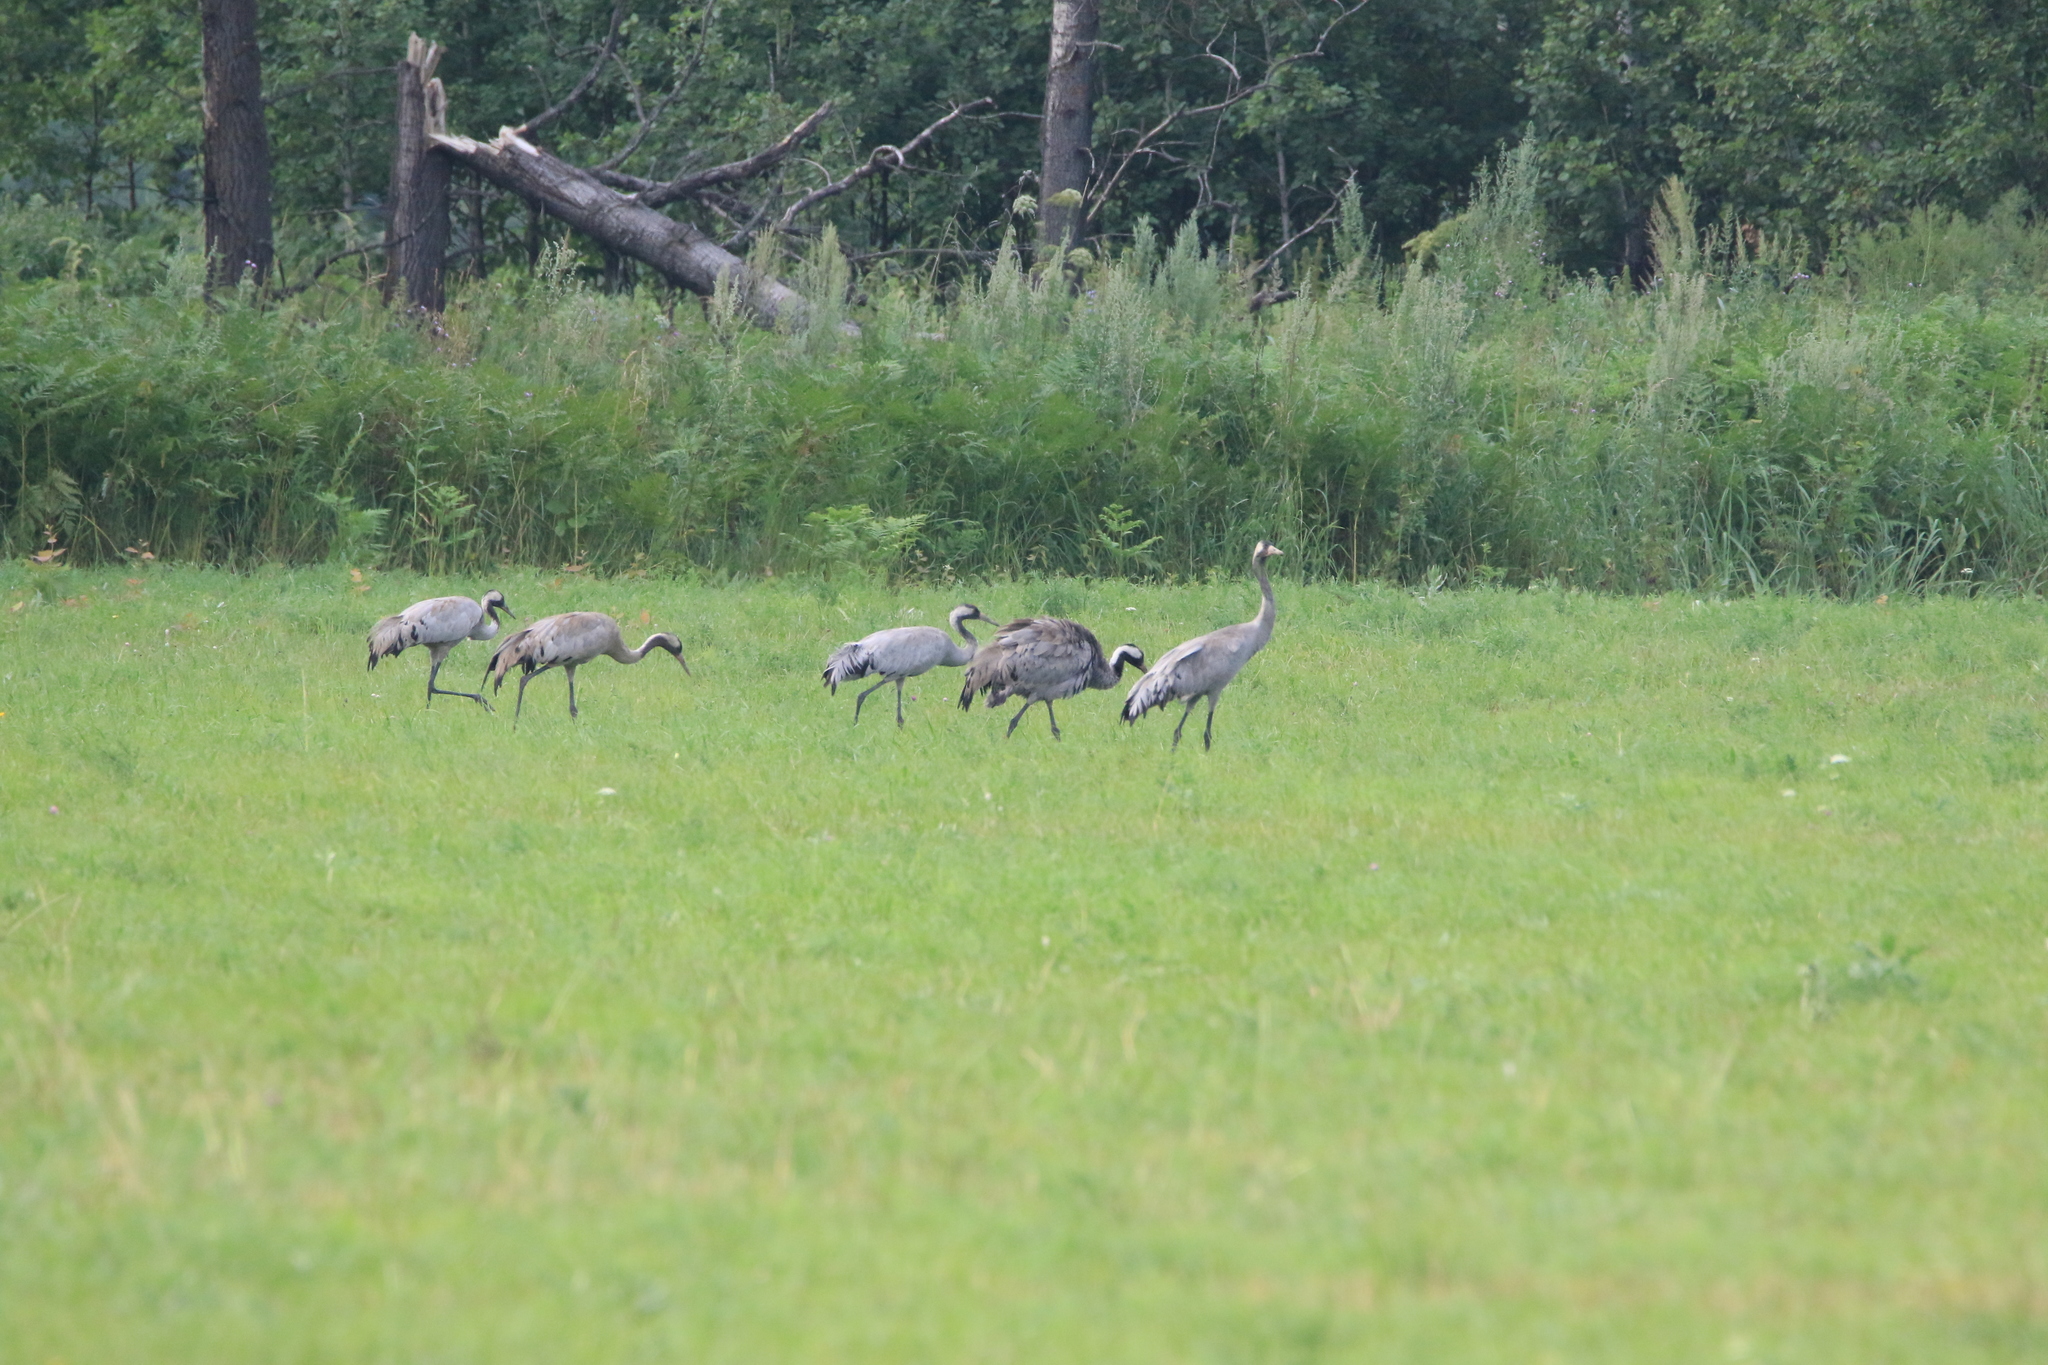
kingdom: Animalia
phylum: Chordata
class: Aves
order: Gruiformes
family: Gruidae
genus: Grus
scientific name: Grus grus
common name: Common crane
